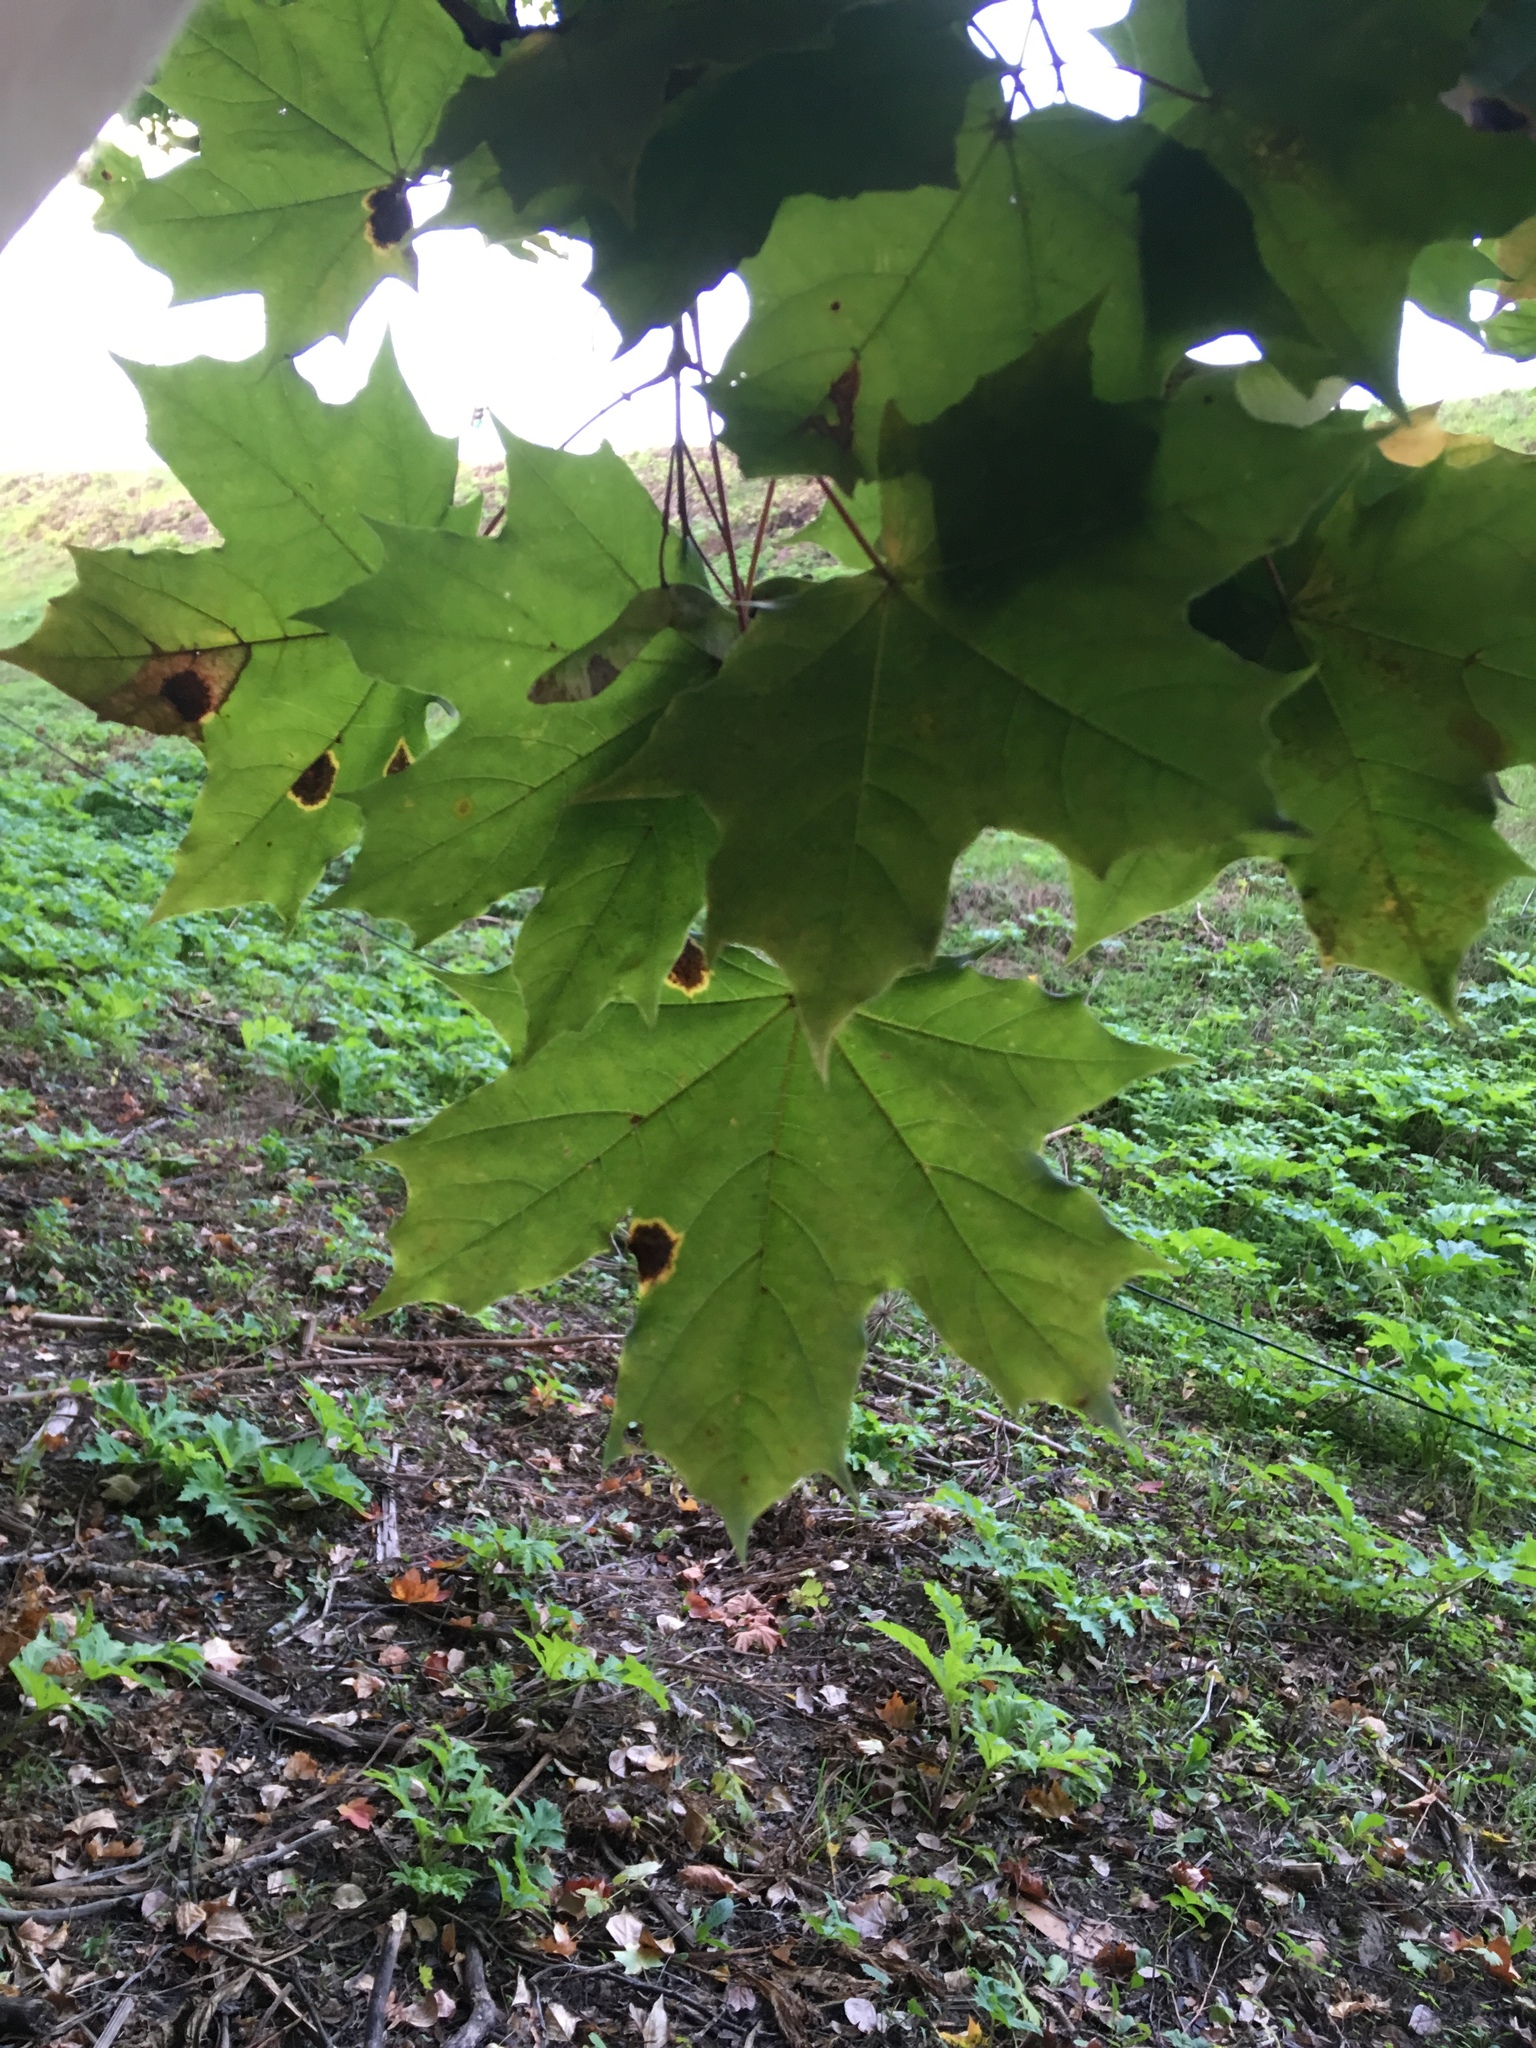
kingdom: Plantae
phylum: Tracheophyta
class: Magnoliopsida
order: Sapindales
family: Sapindaceae
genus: Acer
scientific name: Acer platanoides
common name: Norway maple
